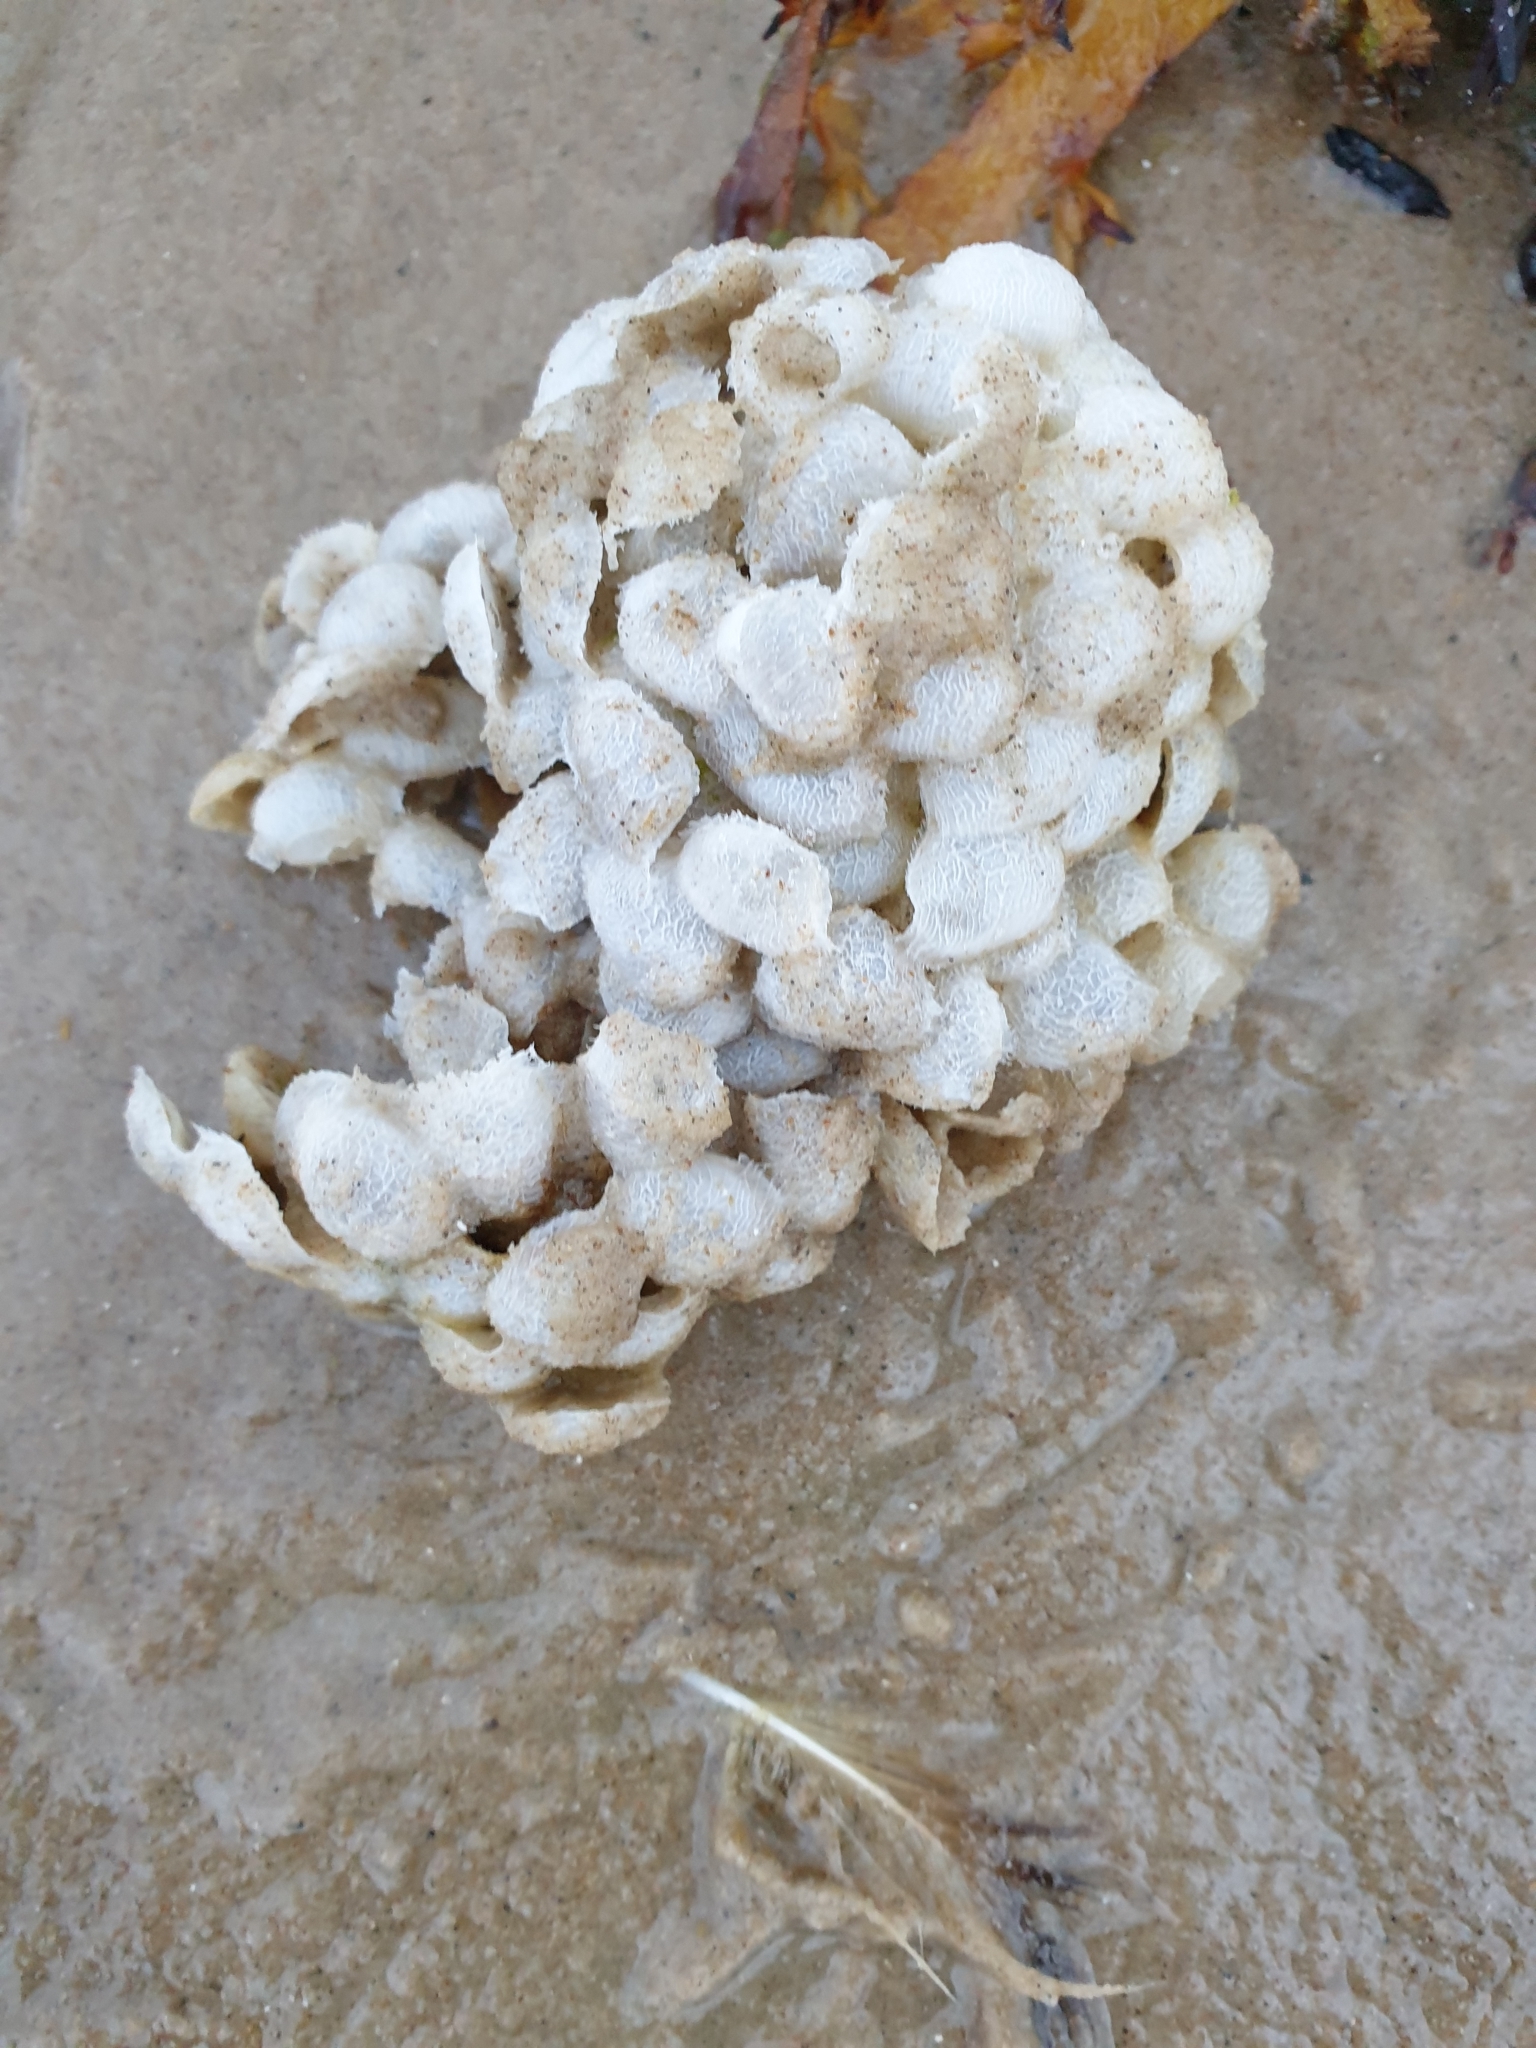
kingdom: Animalia
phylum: Mollusca
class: Gastropoda
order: Neogastropoda
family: Buccinidae
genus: Buccinum
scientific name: Buccinum undatum
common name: Common whelk
